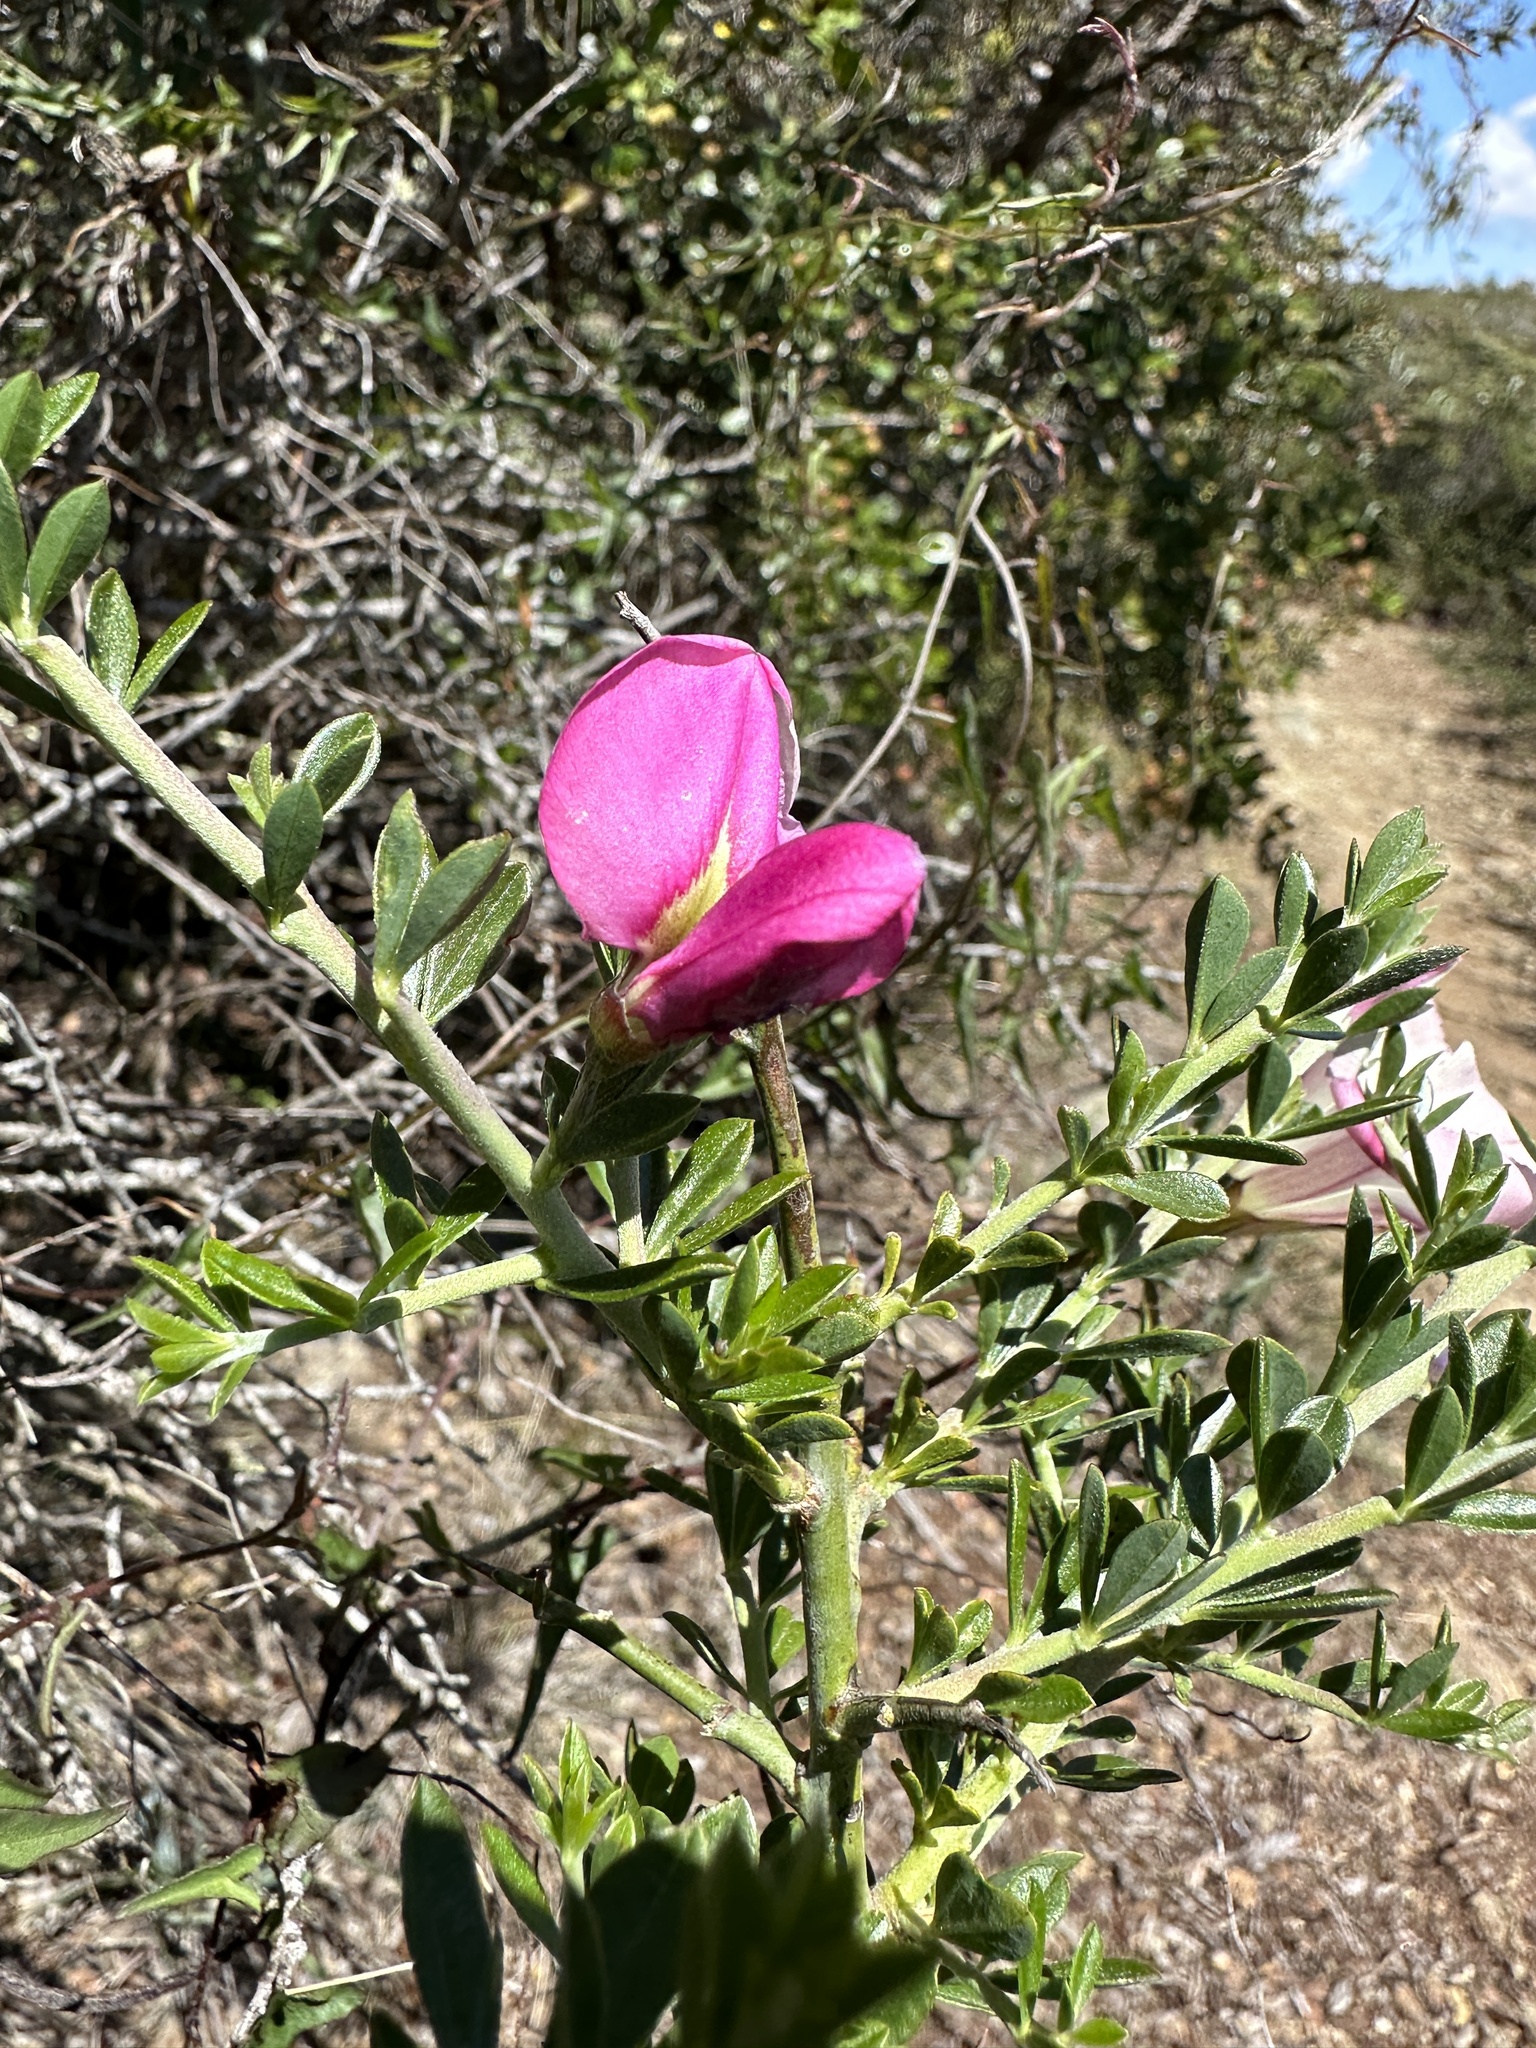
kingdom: Plantae
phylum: Tracheophyta
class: Magnoliopsida
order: Fabales
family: Fabaceae
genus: Pickeringia
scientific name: Pickeringia montana
